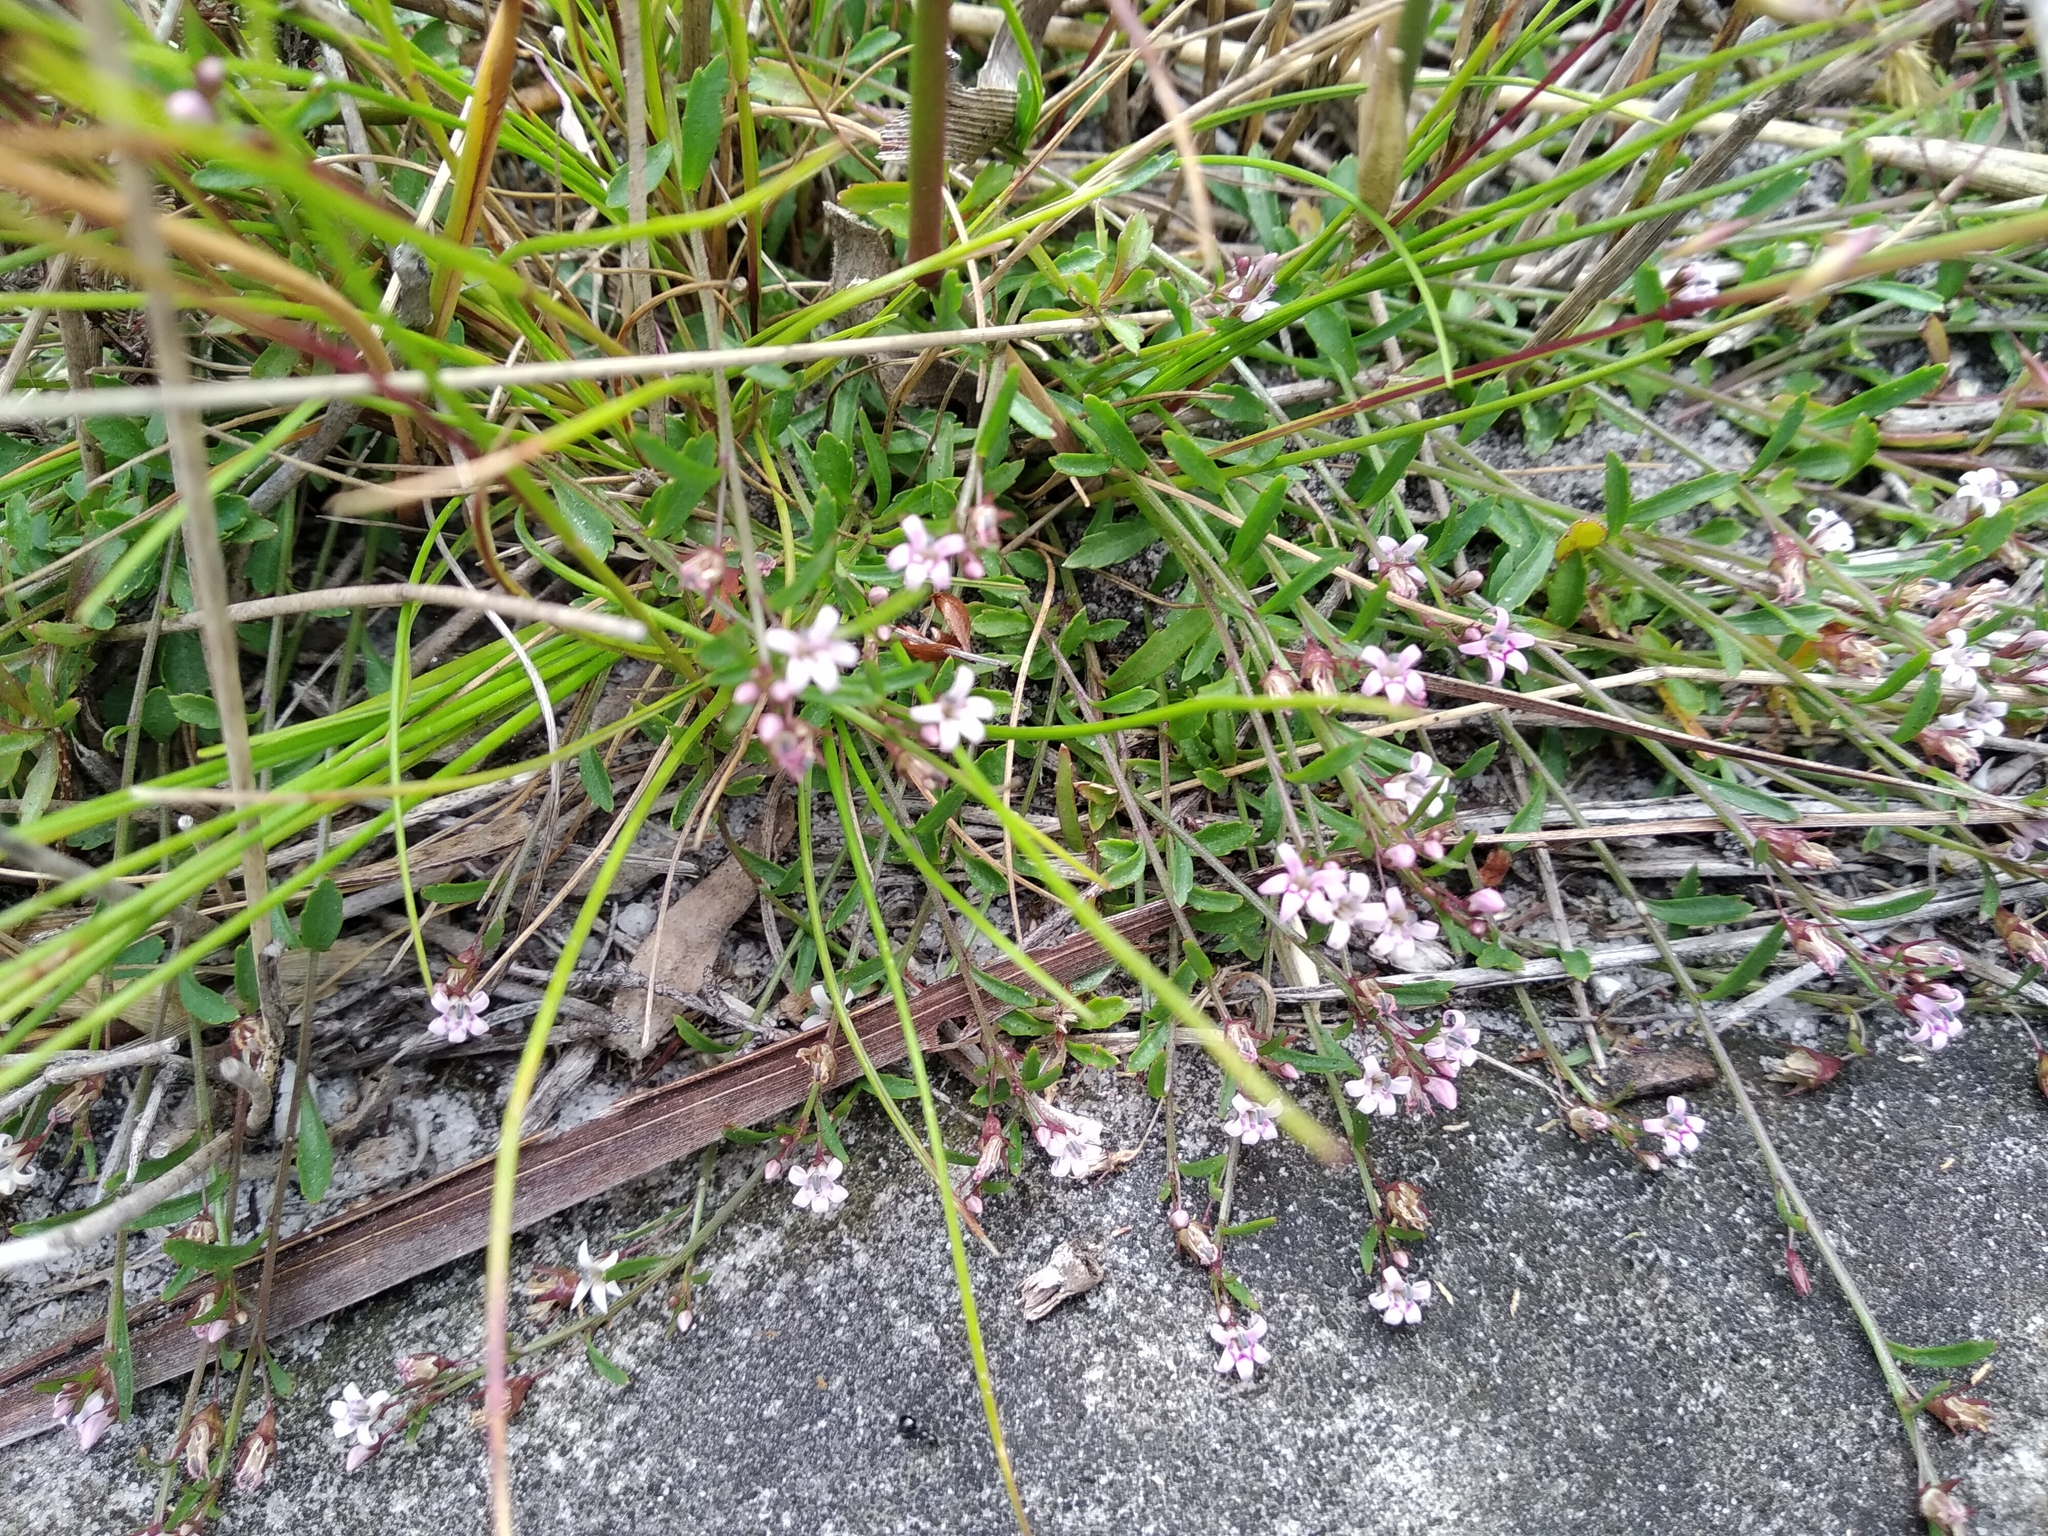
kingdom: Plantae
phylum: Tracheophyta
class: Magnoliopsida
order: Asterales
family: Campanulaceae
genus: Lobelia
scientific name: Lobelia eckloniana
